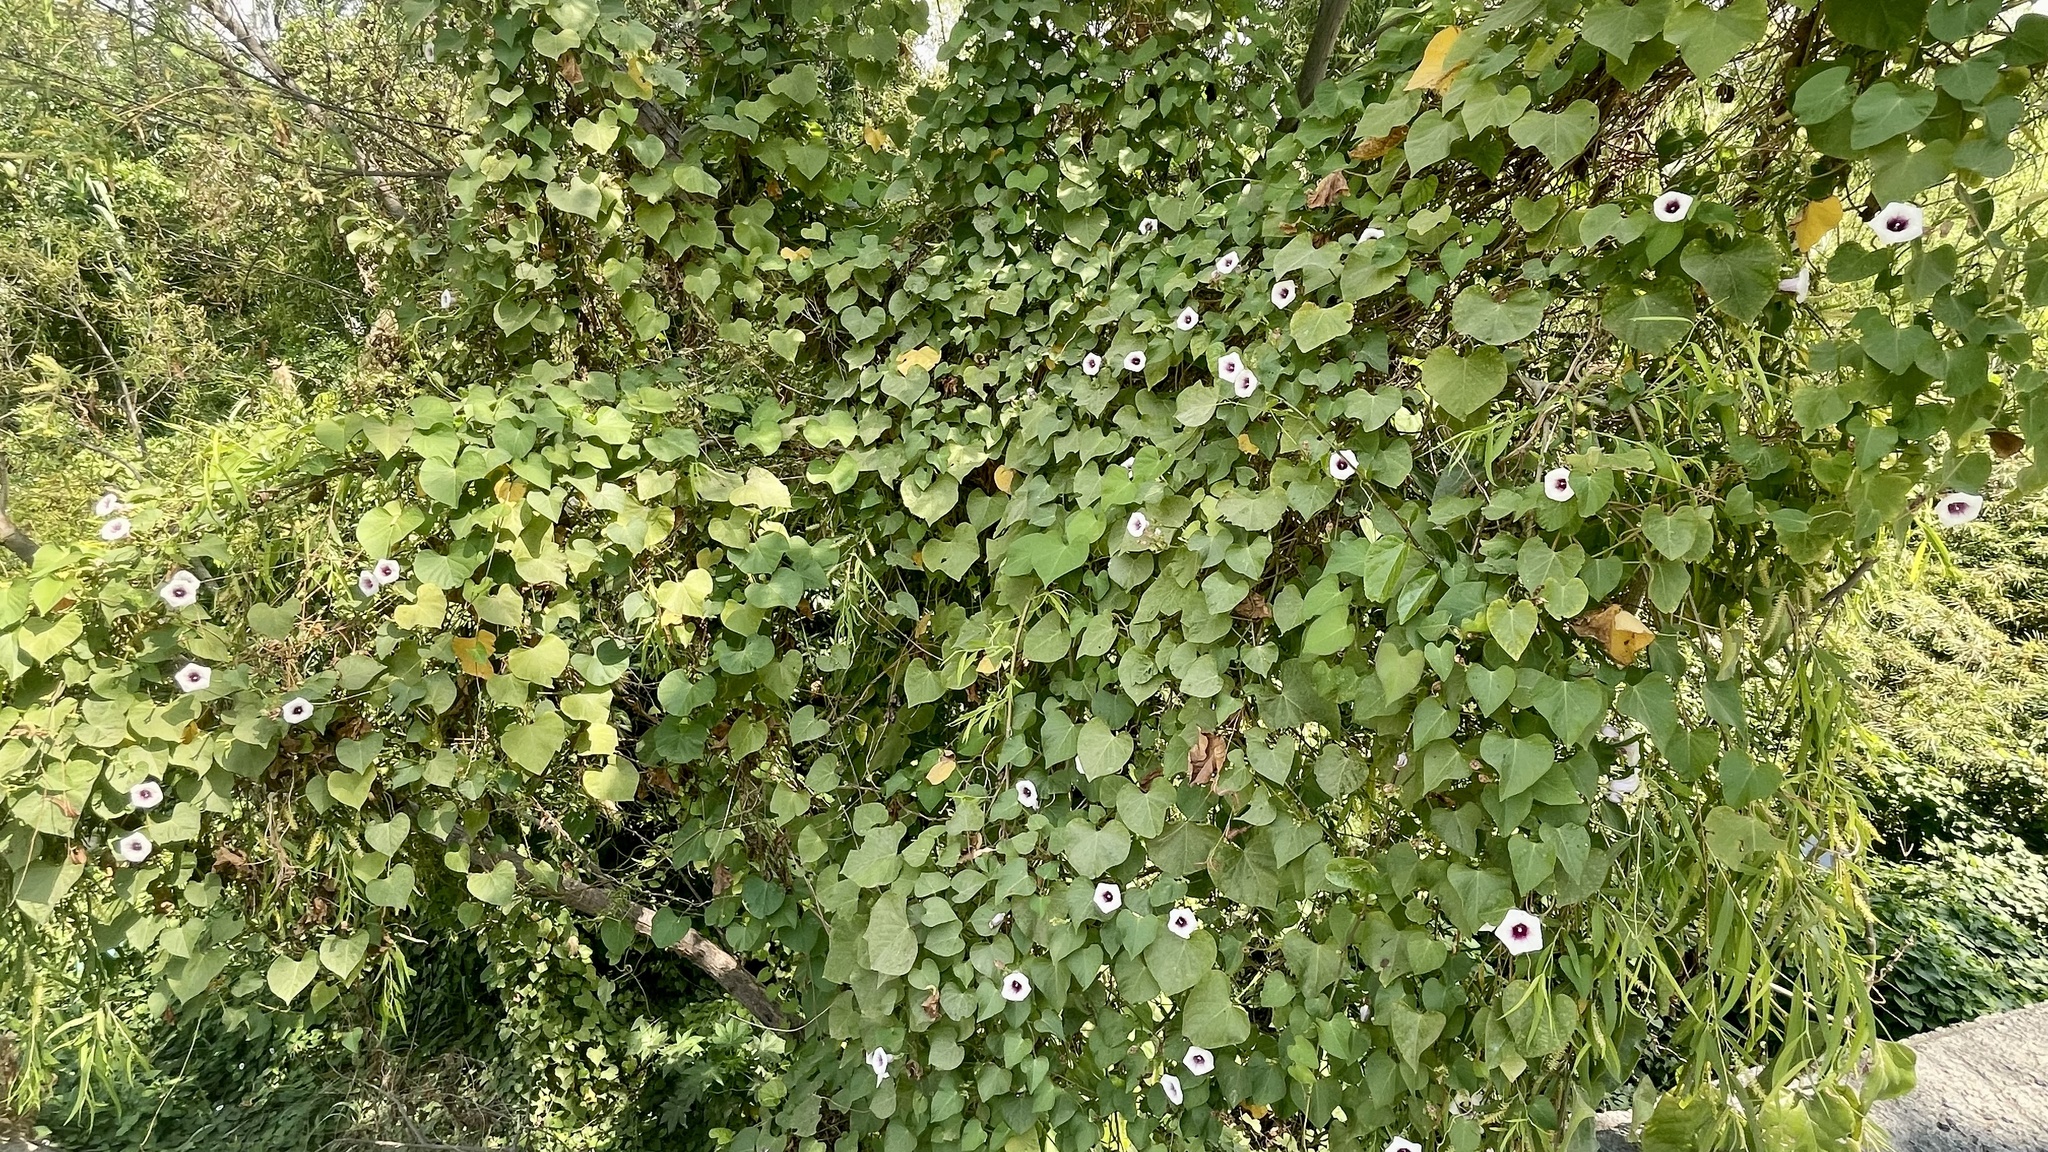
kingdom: Plantae
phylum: Tracheophyta
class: Magnoliopsida
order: Solanales
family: Convolvulaceae
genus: Ipomoea
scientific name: Ipomoea batatas
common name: Sweet-potato
